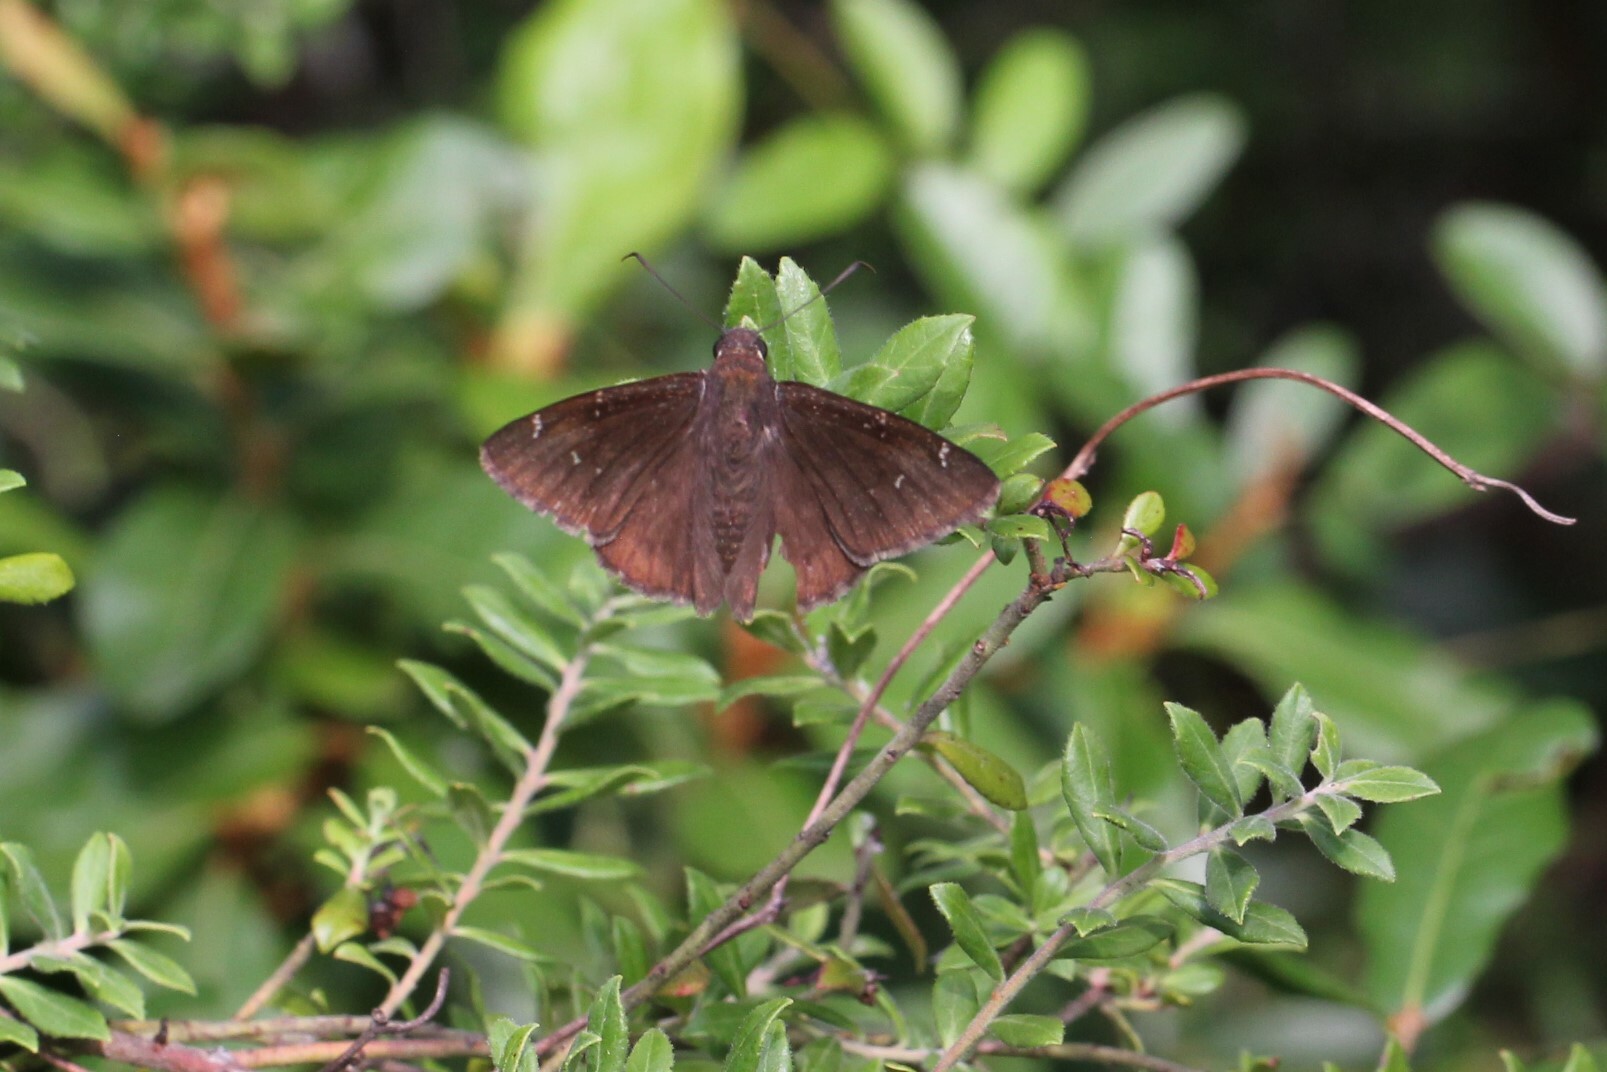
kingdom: Animalia
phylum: Arthropoda
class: Insecta
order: Lepidoptera
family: Hesperiidae
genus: Thorybes
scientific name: Thorybes pylades
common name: Northern cloudywing
